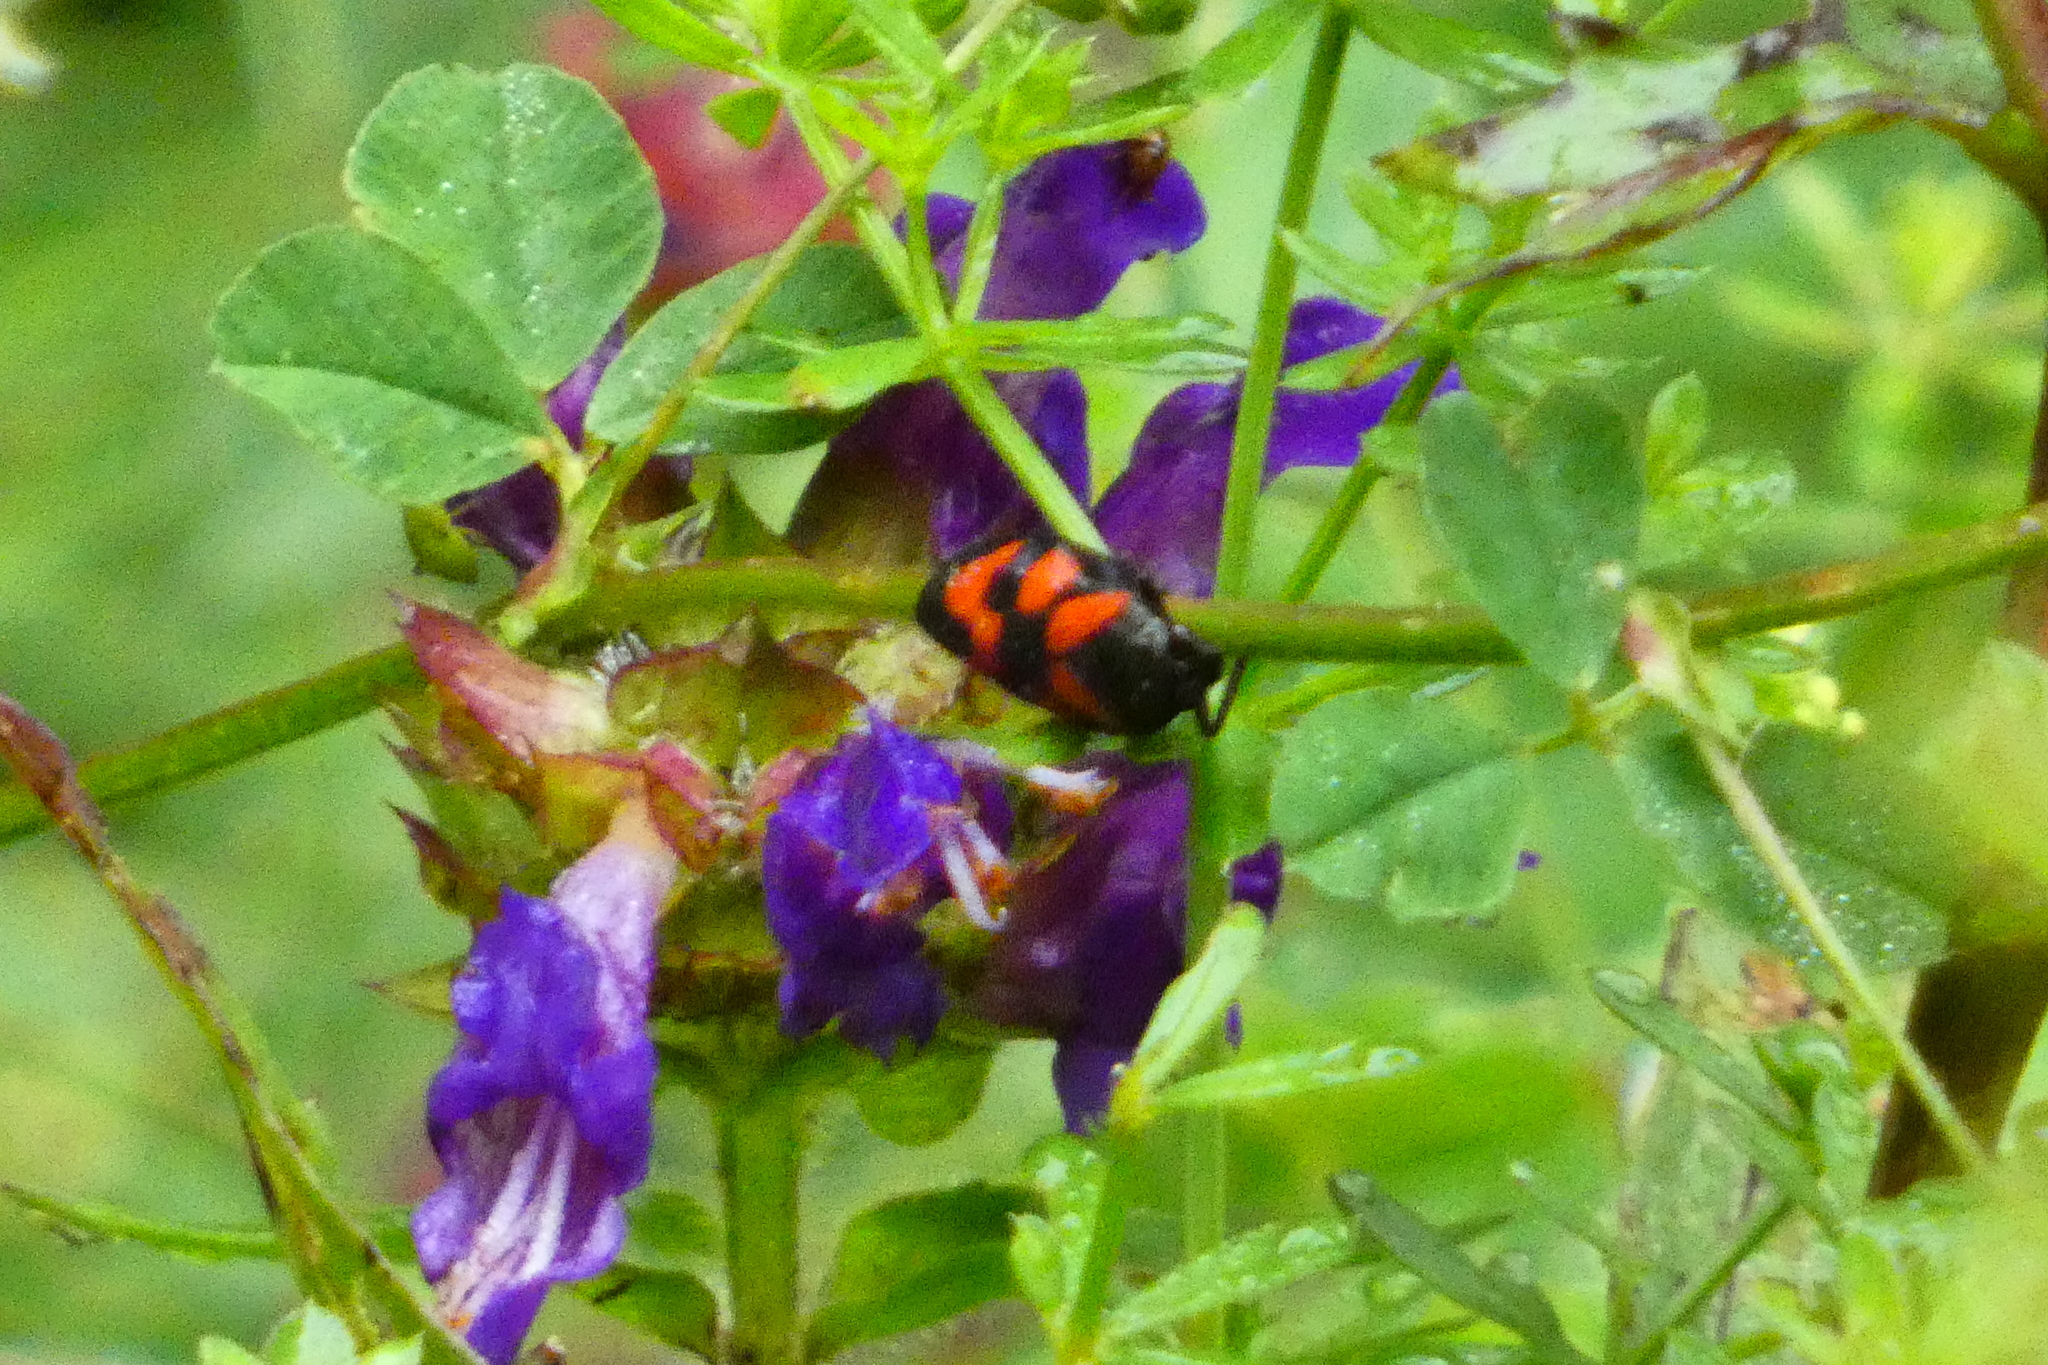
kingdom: Animalia
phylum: Arthropoda
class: Insecta
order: Hemiptera
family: Cercopidae
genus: Cercopis
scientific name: Cercopis vulnerata
